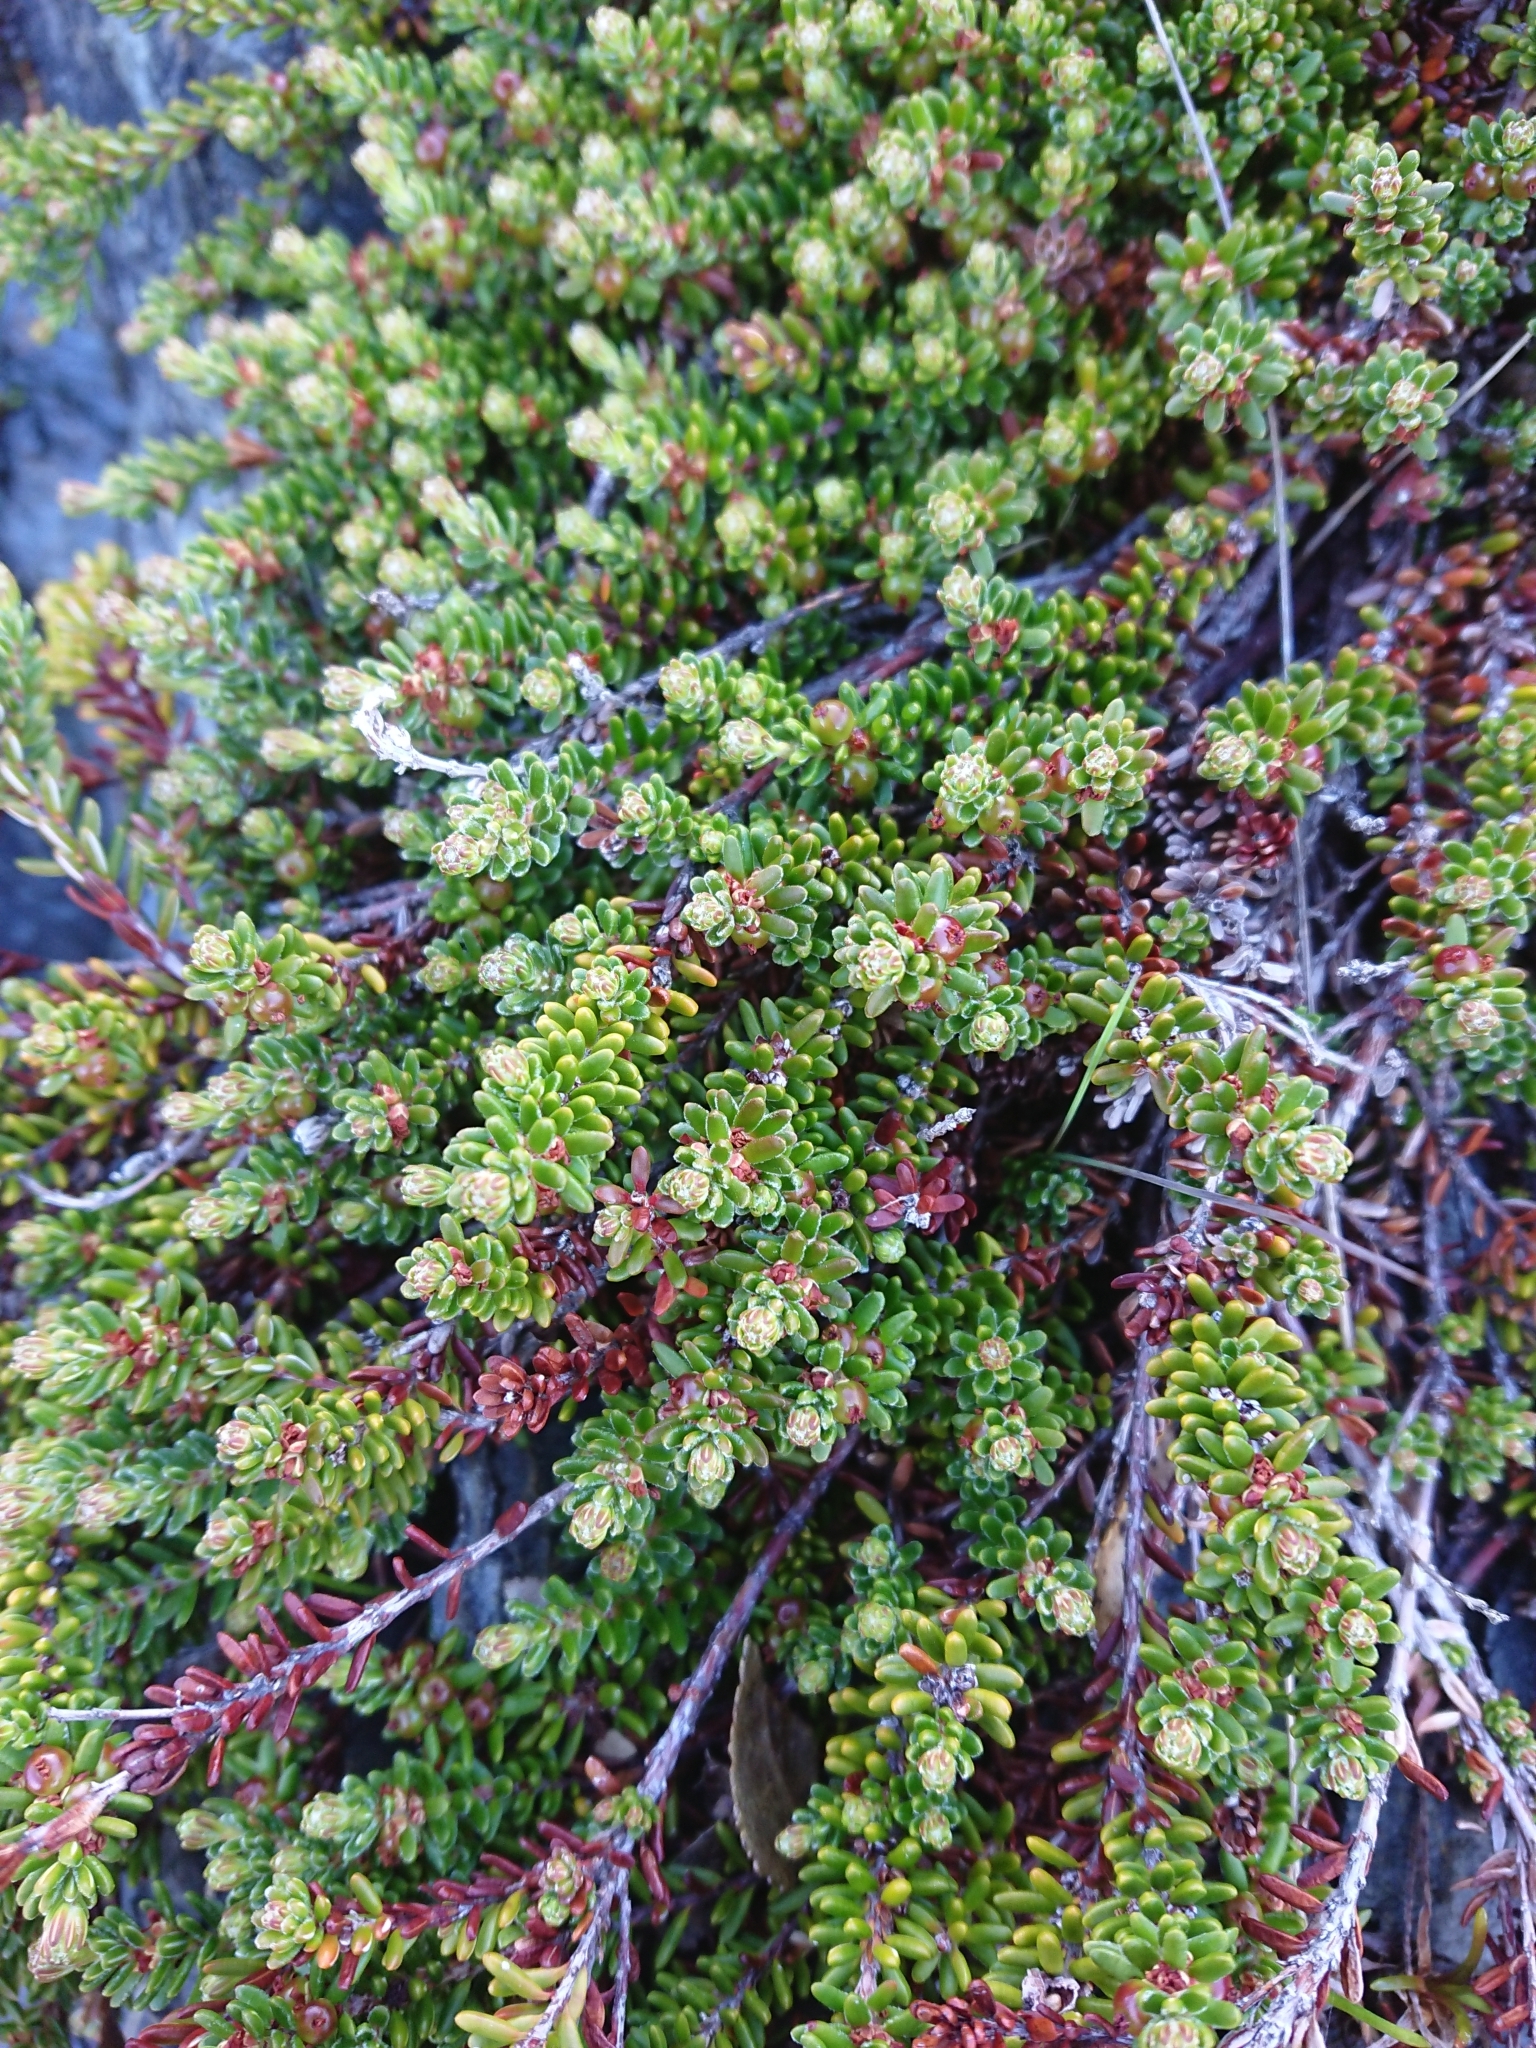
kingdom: Plantae
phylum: Tracheophyta
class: Magnoliopsida
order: Ericales
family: Ericaceae
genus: Empetrum
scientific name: Empetrum rubrum
